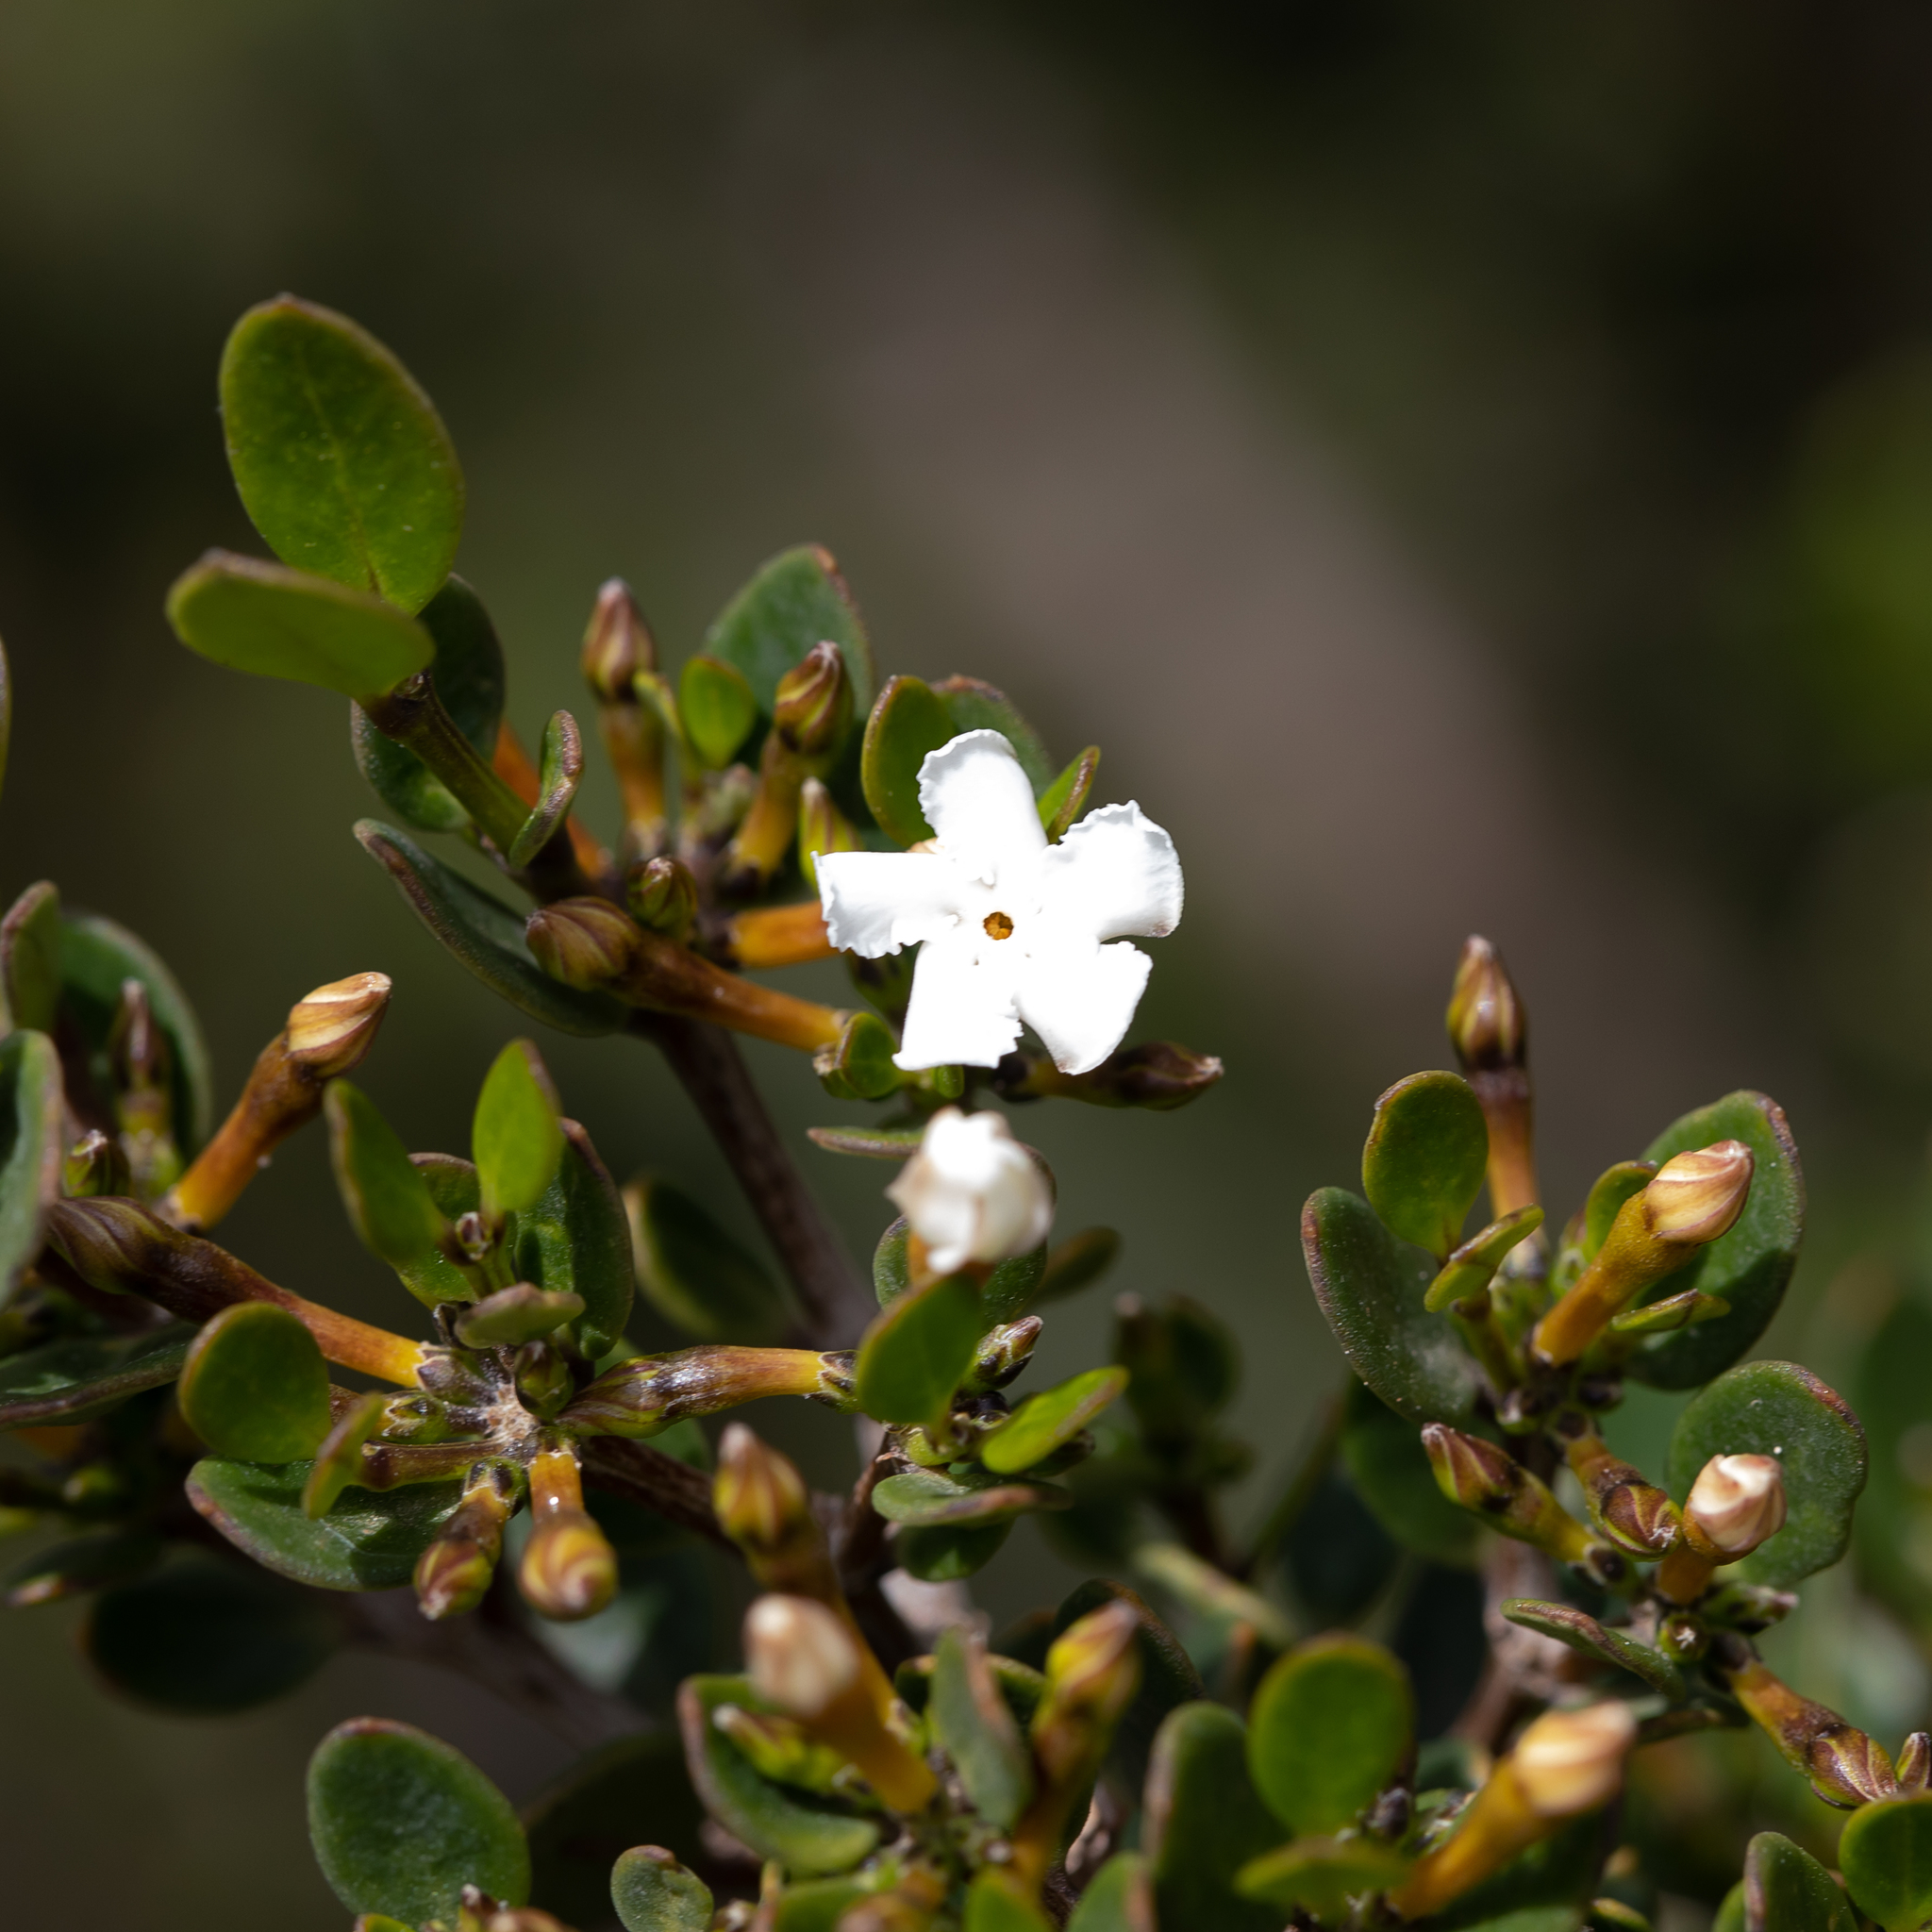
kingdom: Plantae
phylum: Tracheophyta
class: Magnoliopsida
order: Gentianales
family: Apocynaceae
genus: Alyxia
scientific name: Alyxia buxifolia
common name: Dysentery-bush
